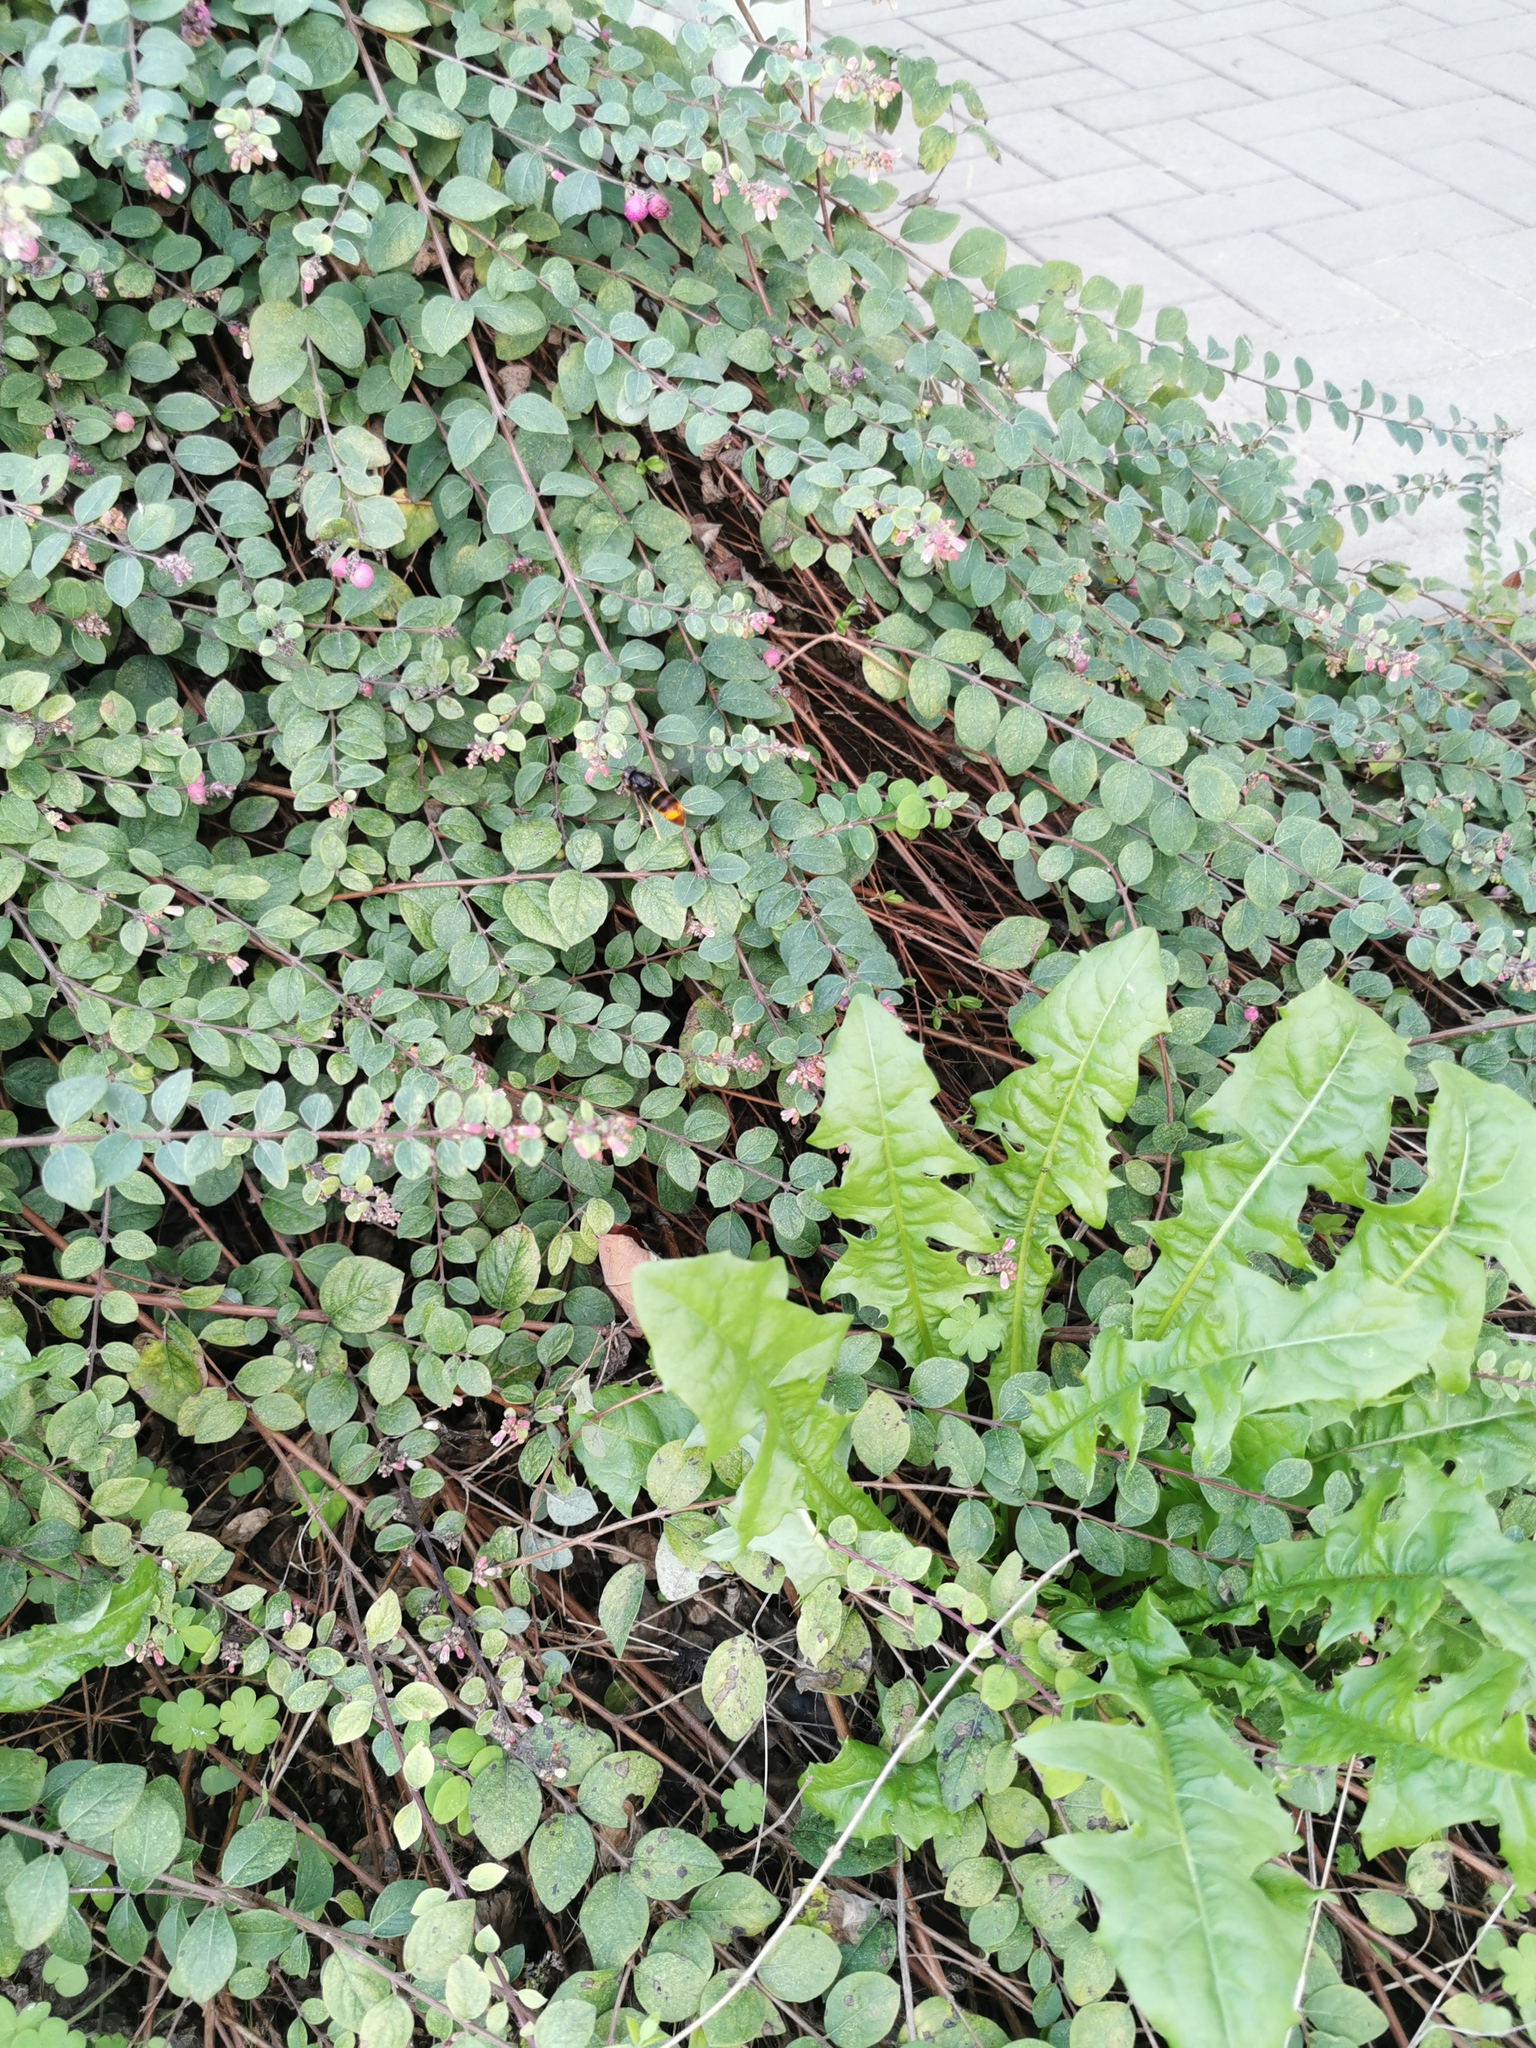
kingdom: Animalia
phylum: Arthropoda
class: Insecta
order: Hymenoptera
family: Vespidae
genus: Vespa
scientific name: Vespa velutina
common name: Asian hornet
